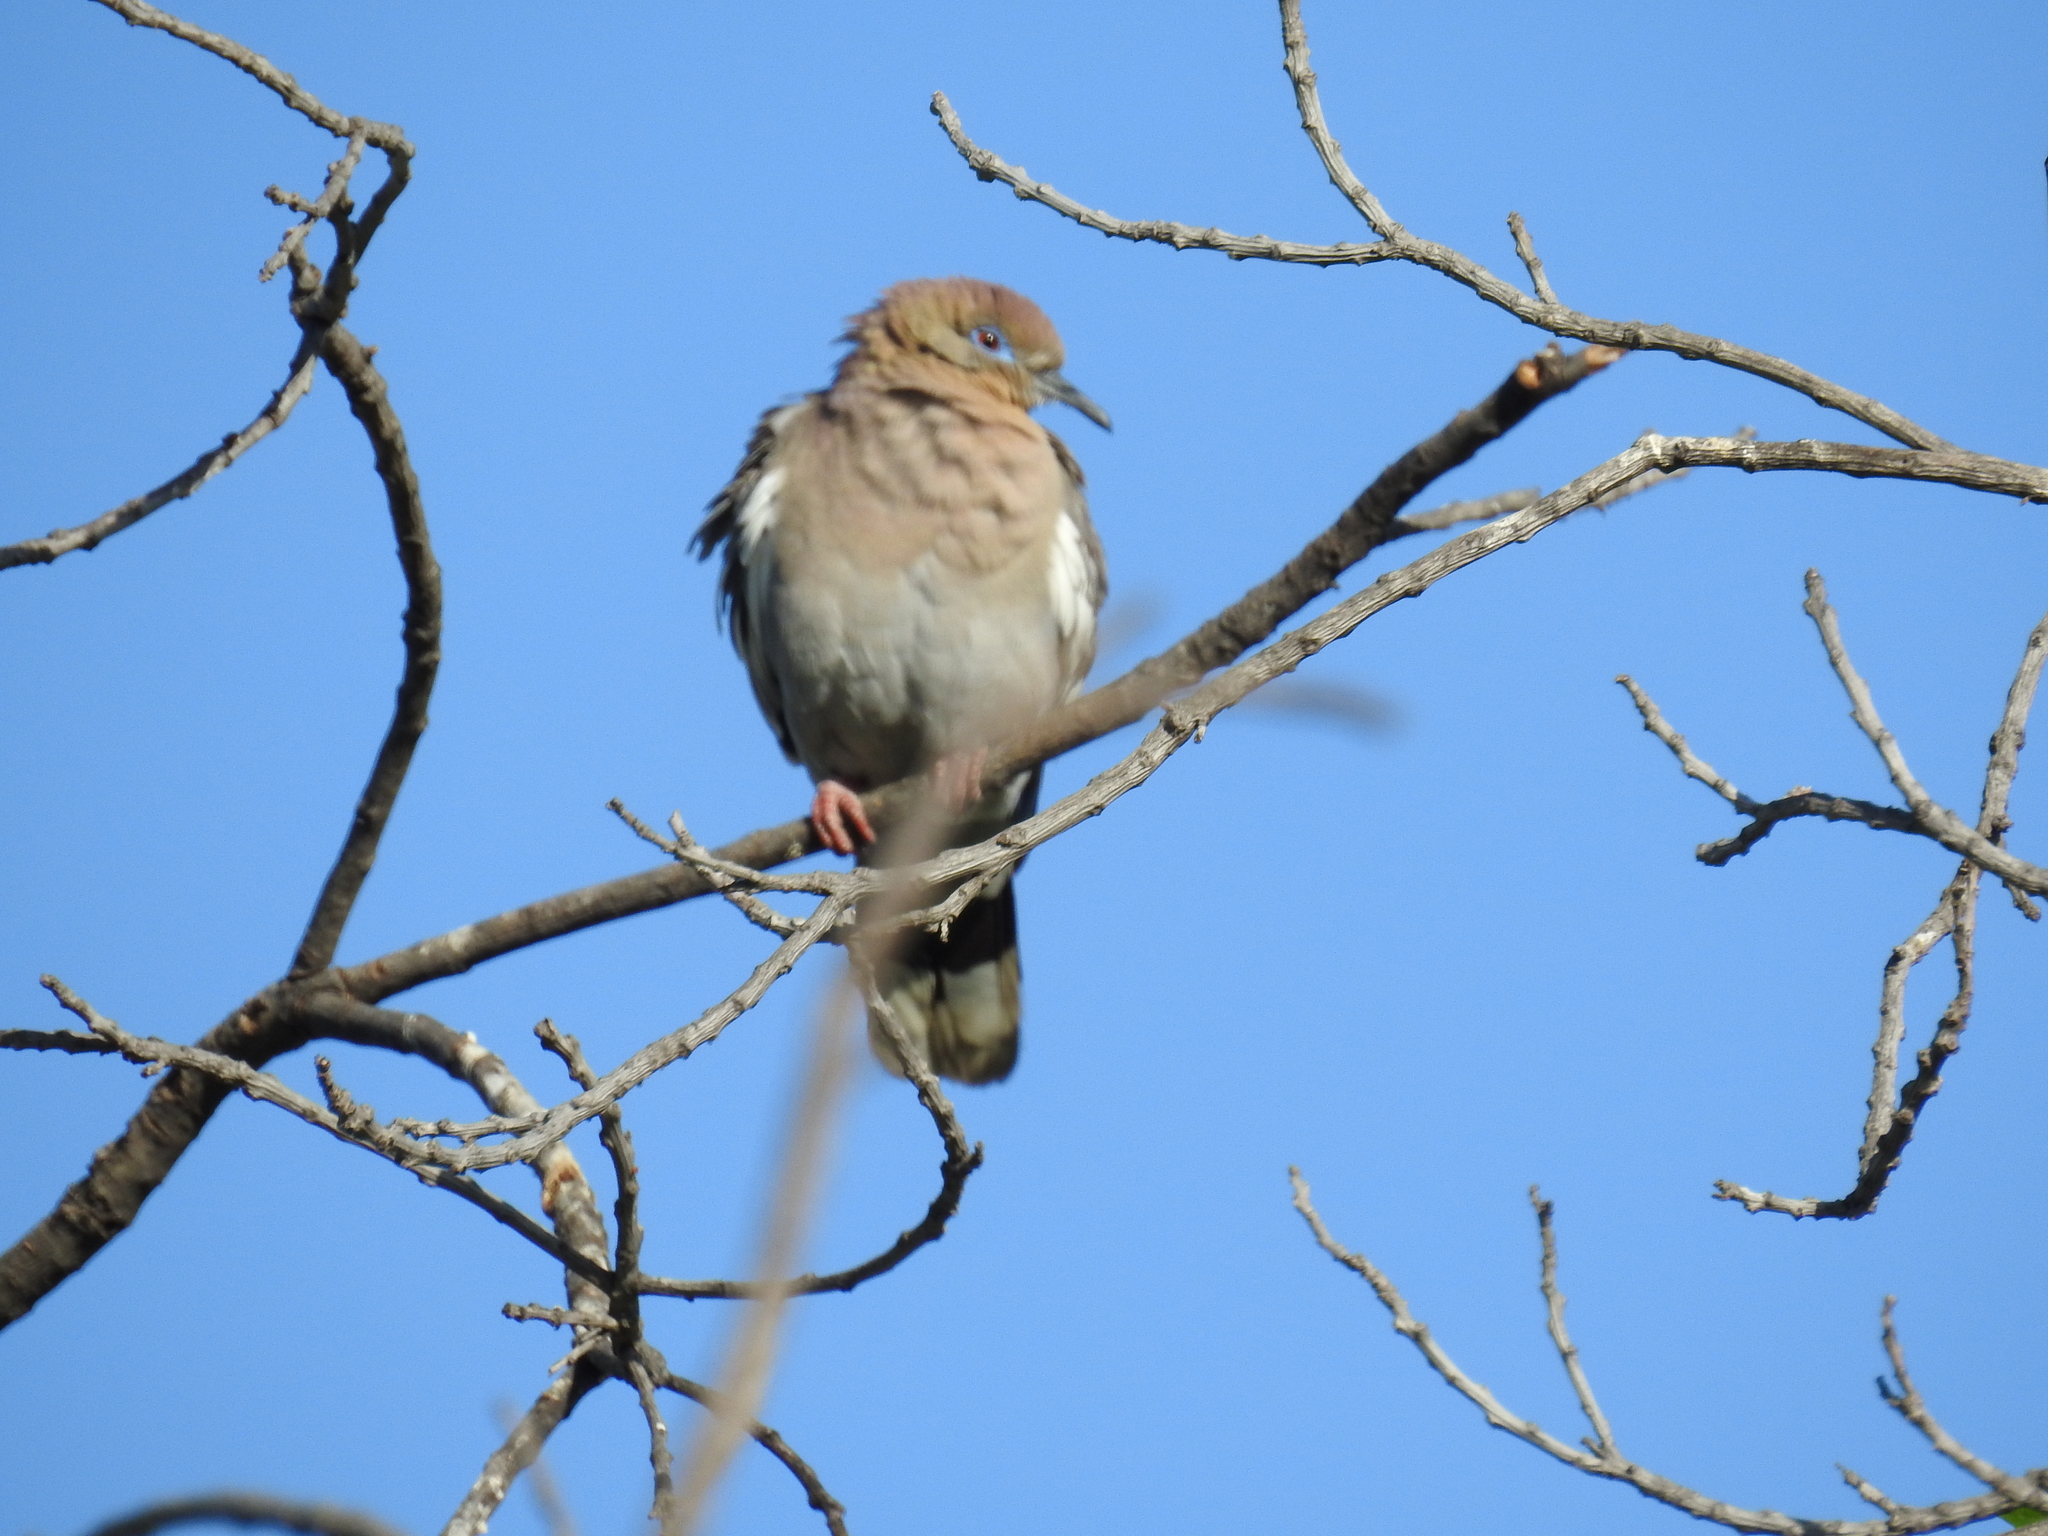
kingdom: Animalia
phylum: Chordata
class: Aves
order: Columbiformes
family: Columbidae
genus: Zenaida
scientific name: Zenaida asiatica
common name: White-winged dove
